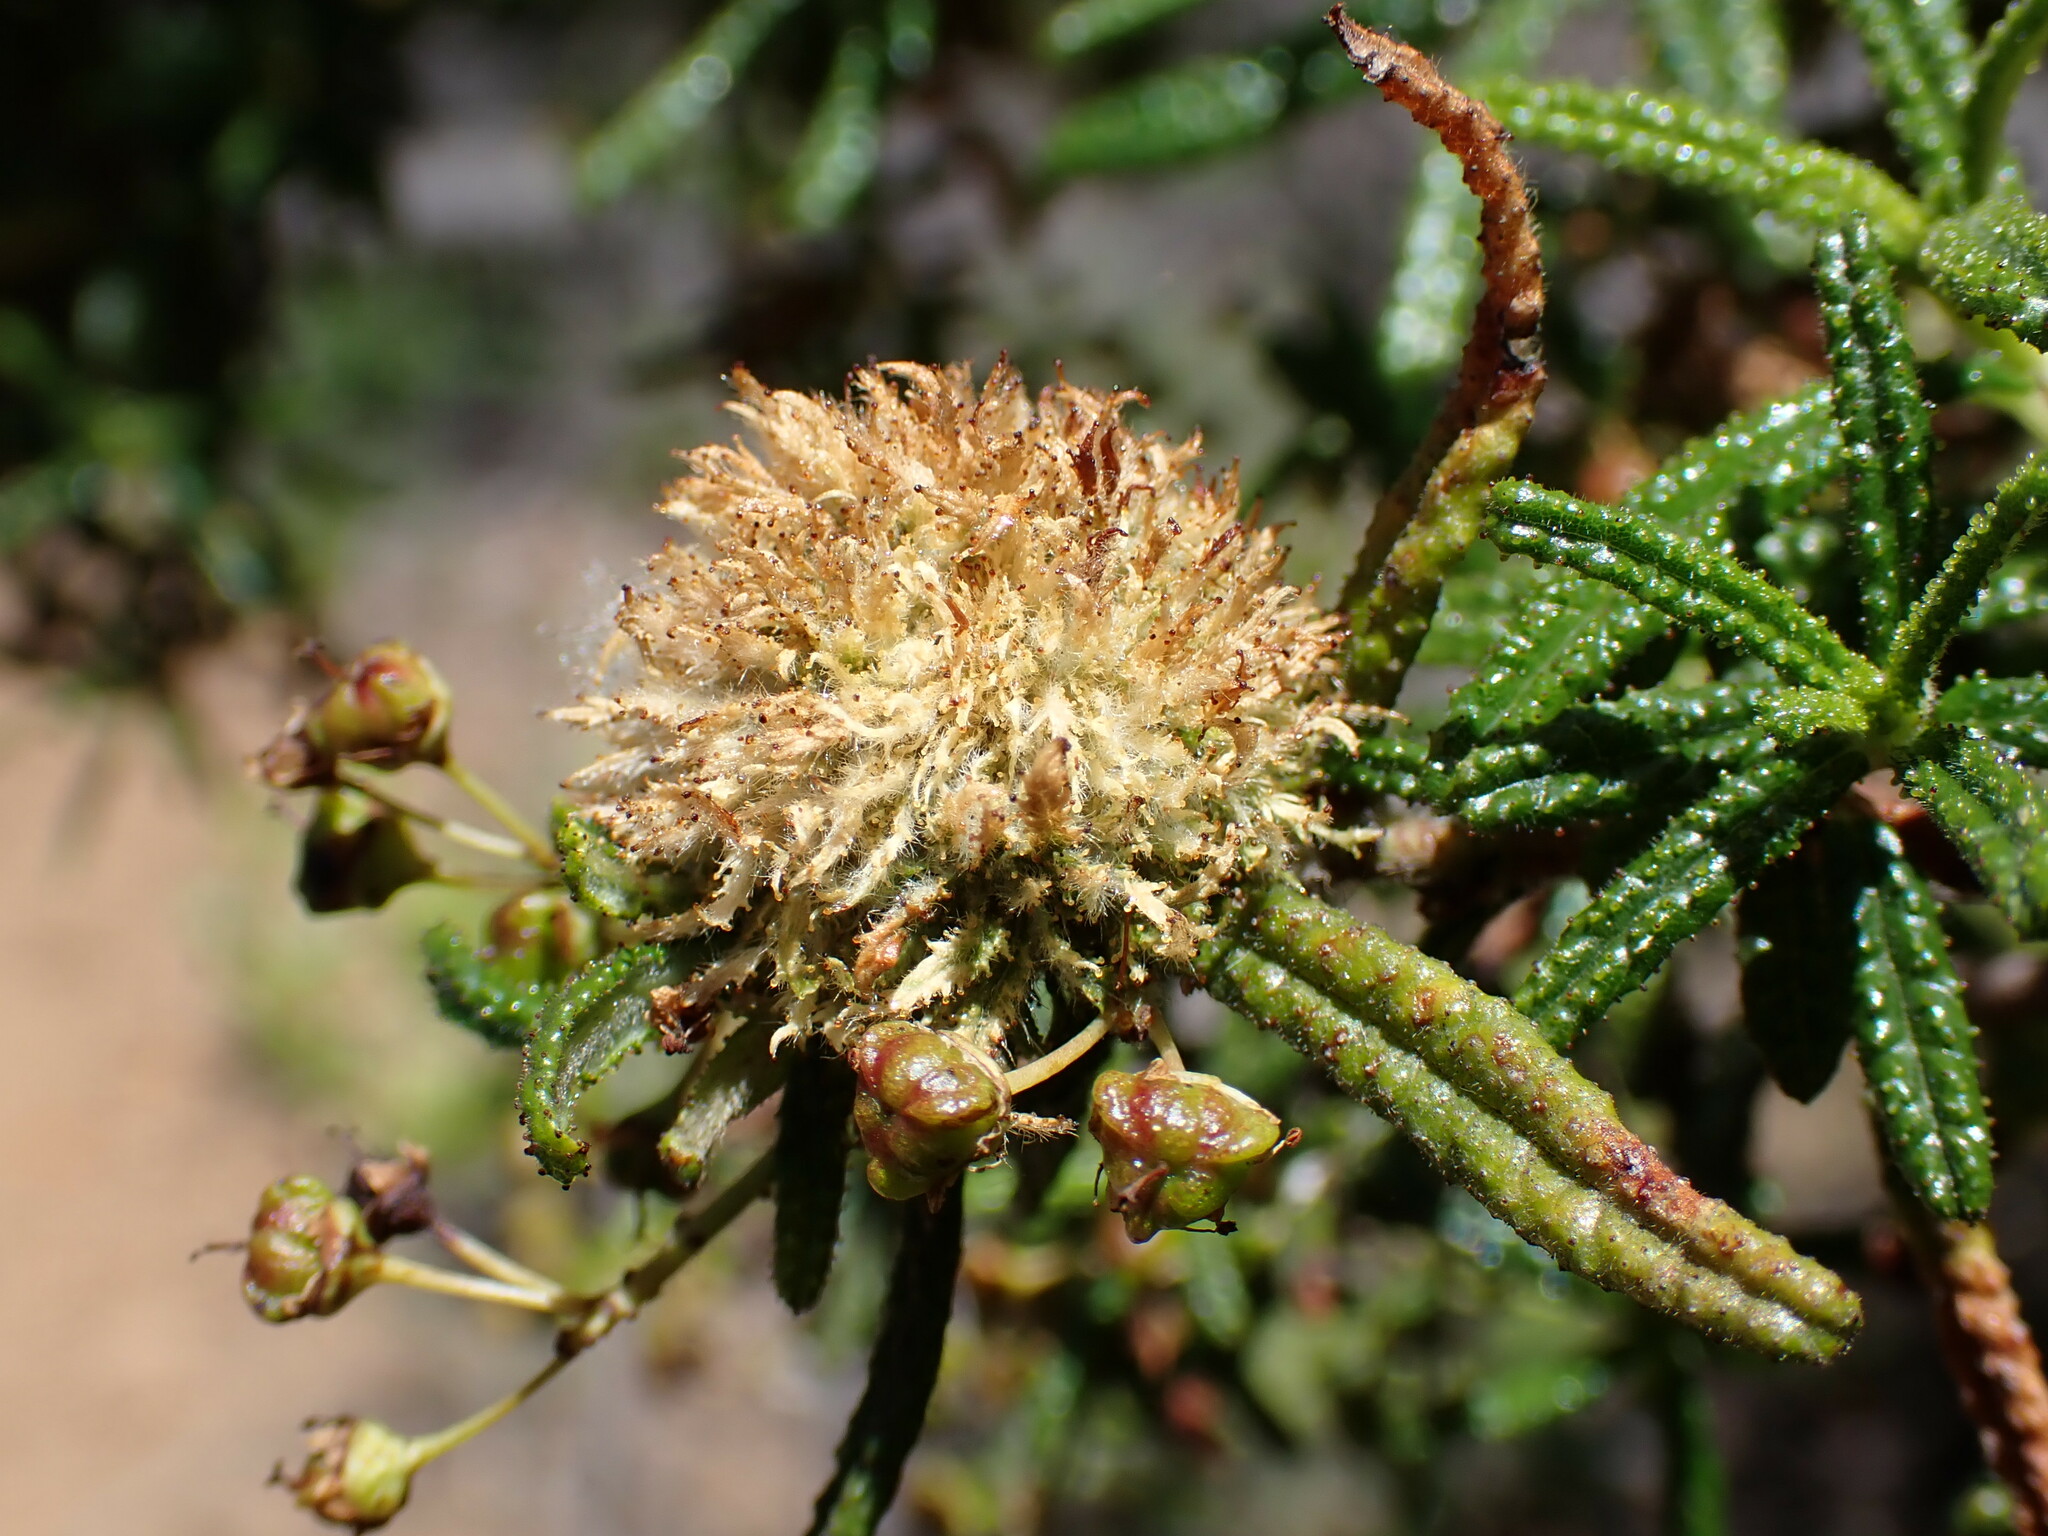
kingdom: Animalia
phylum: Arthropoda
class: Insecta
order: Diptera
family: Cecidomyiidae
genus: Asphondylia
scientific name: Asphondylia ceanothi
